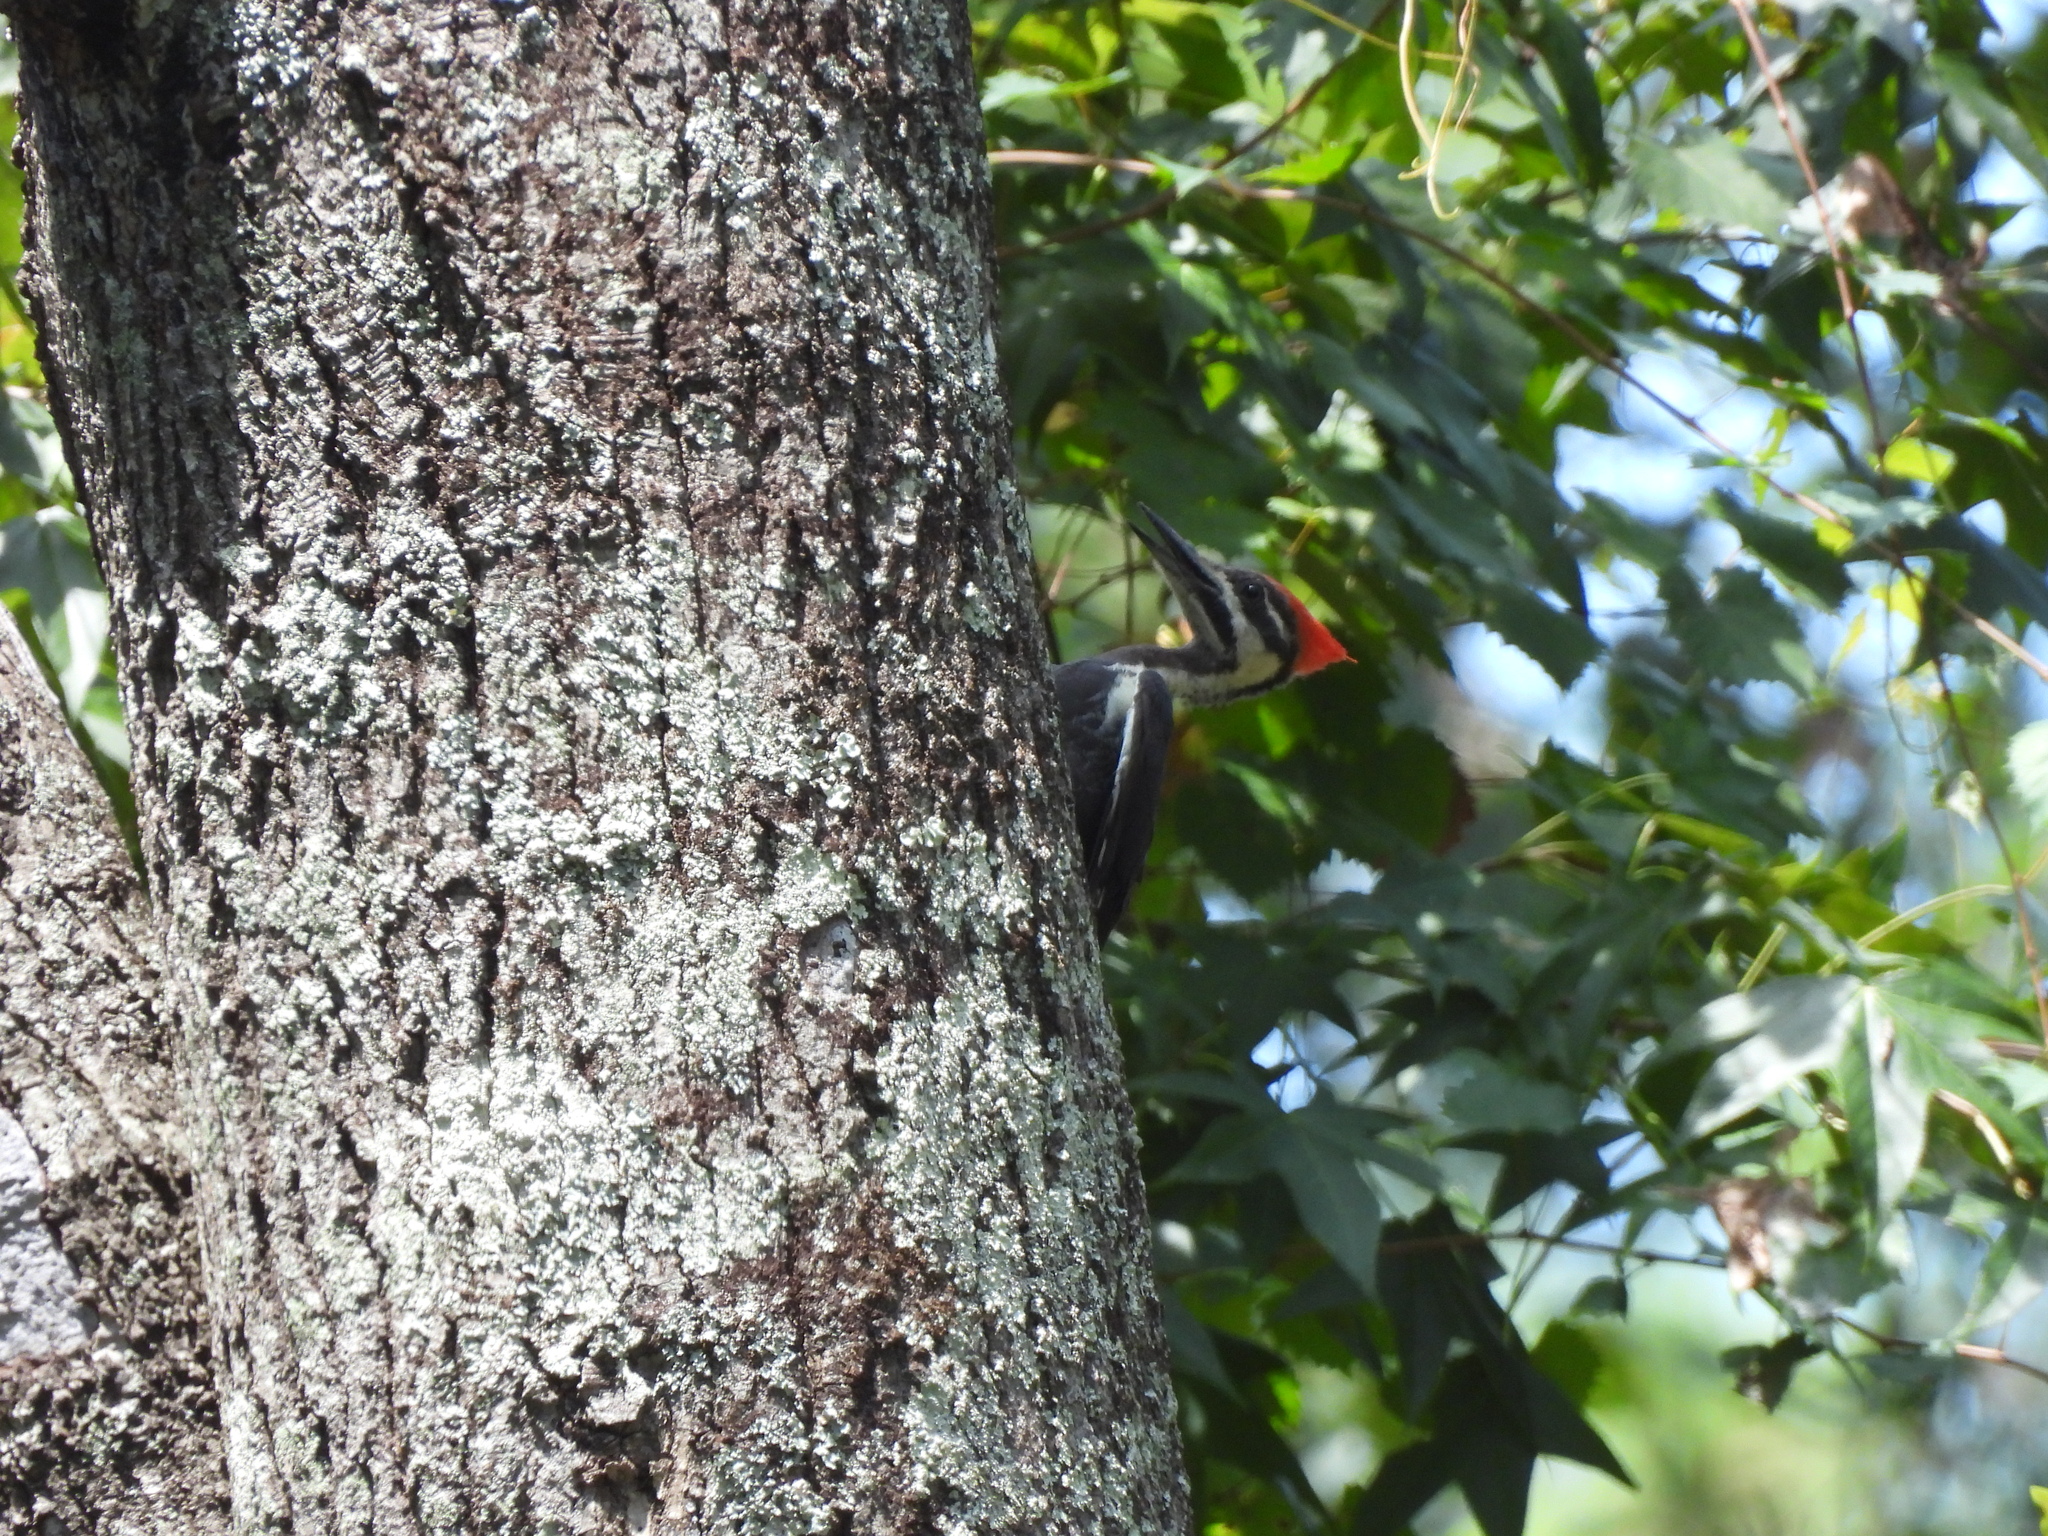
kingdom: Animalia
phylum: Chordata
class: Aves
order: Piciformes
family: Picidae
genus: Dryocopus
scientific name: Dryocopus pileatus
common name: Pileated woodpecker
